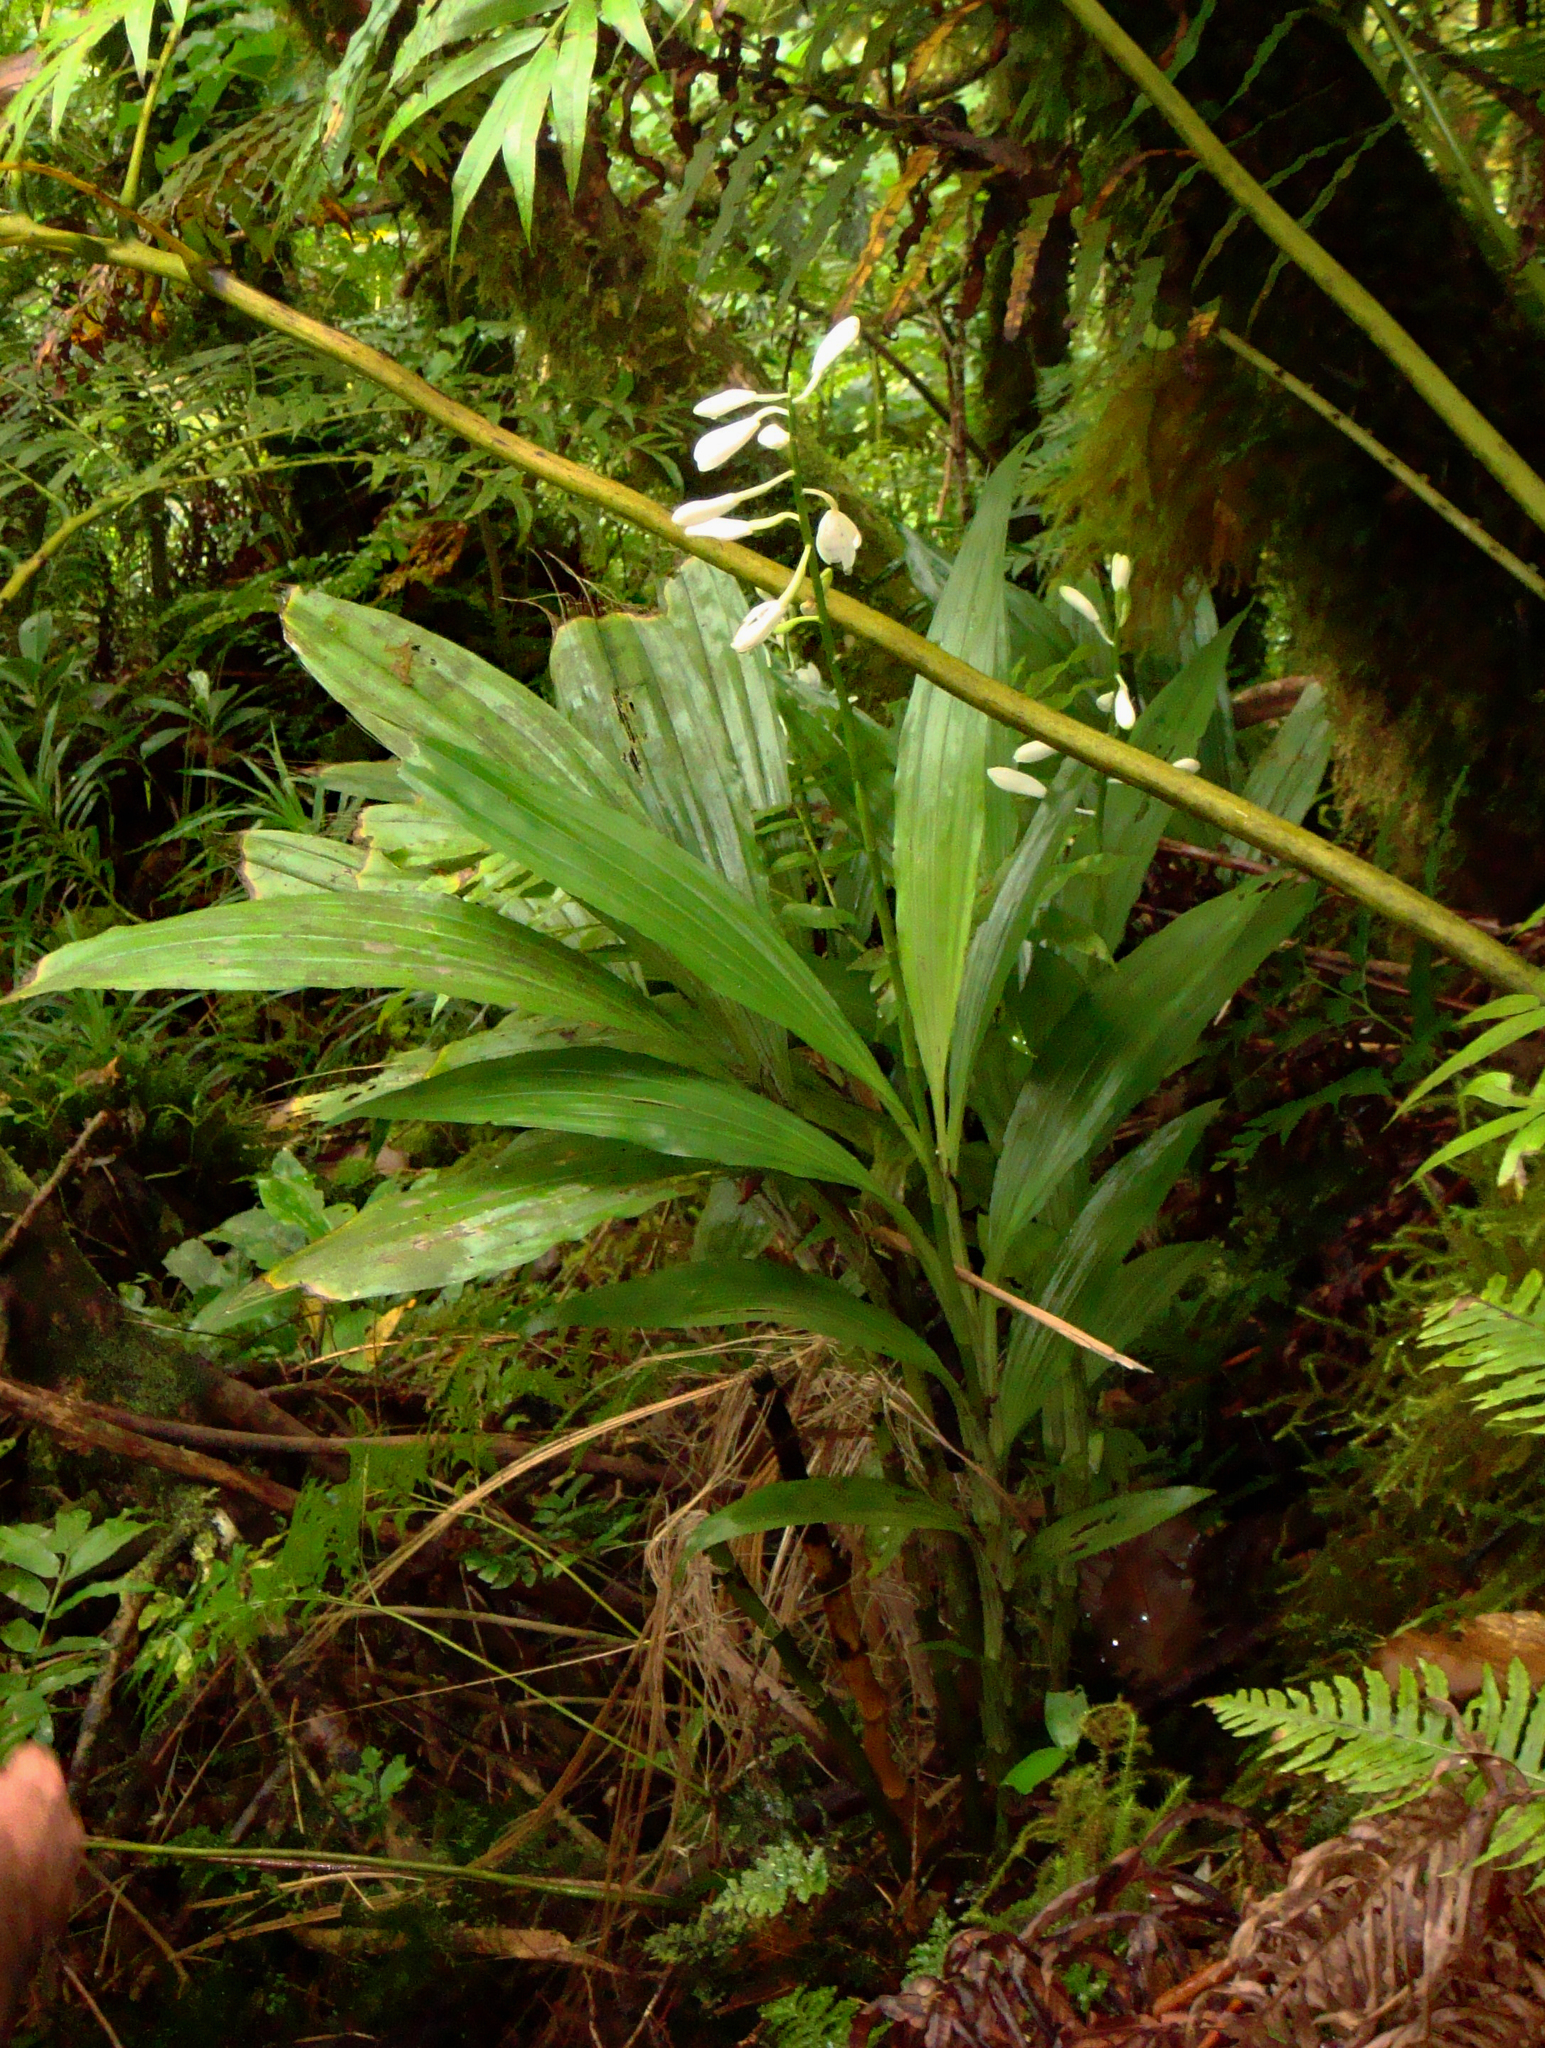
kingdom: Plantae
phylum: Tracheophyta
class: Liliopsida
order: Asparagales
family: Orchidaceae
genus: Calanthe
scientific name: Calanthe amboinensis
